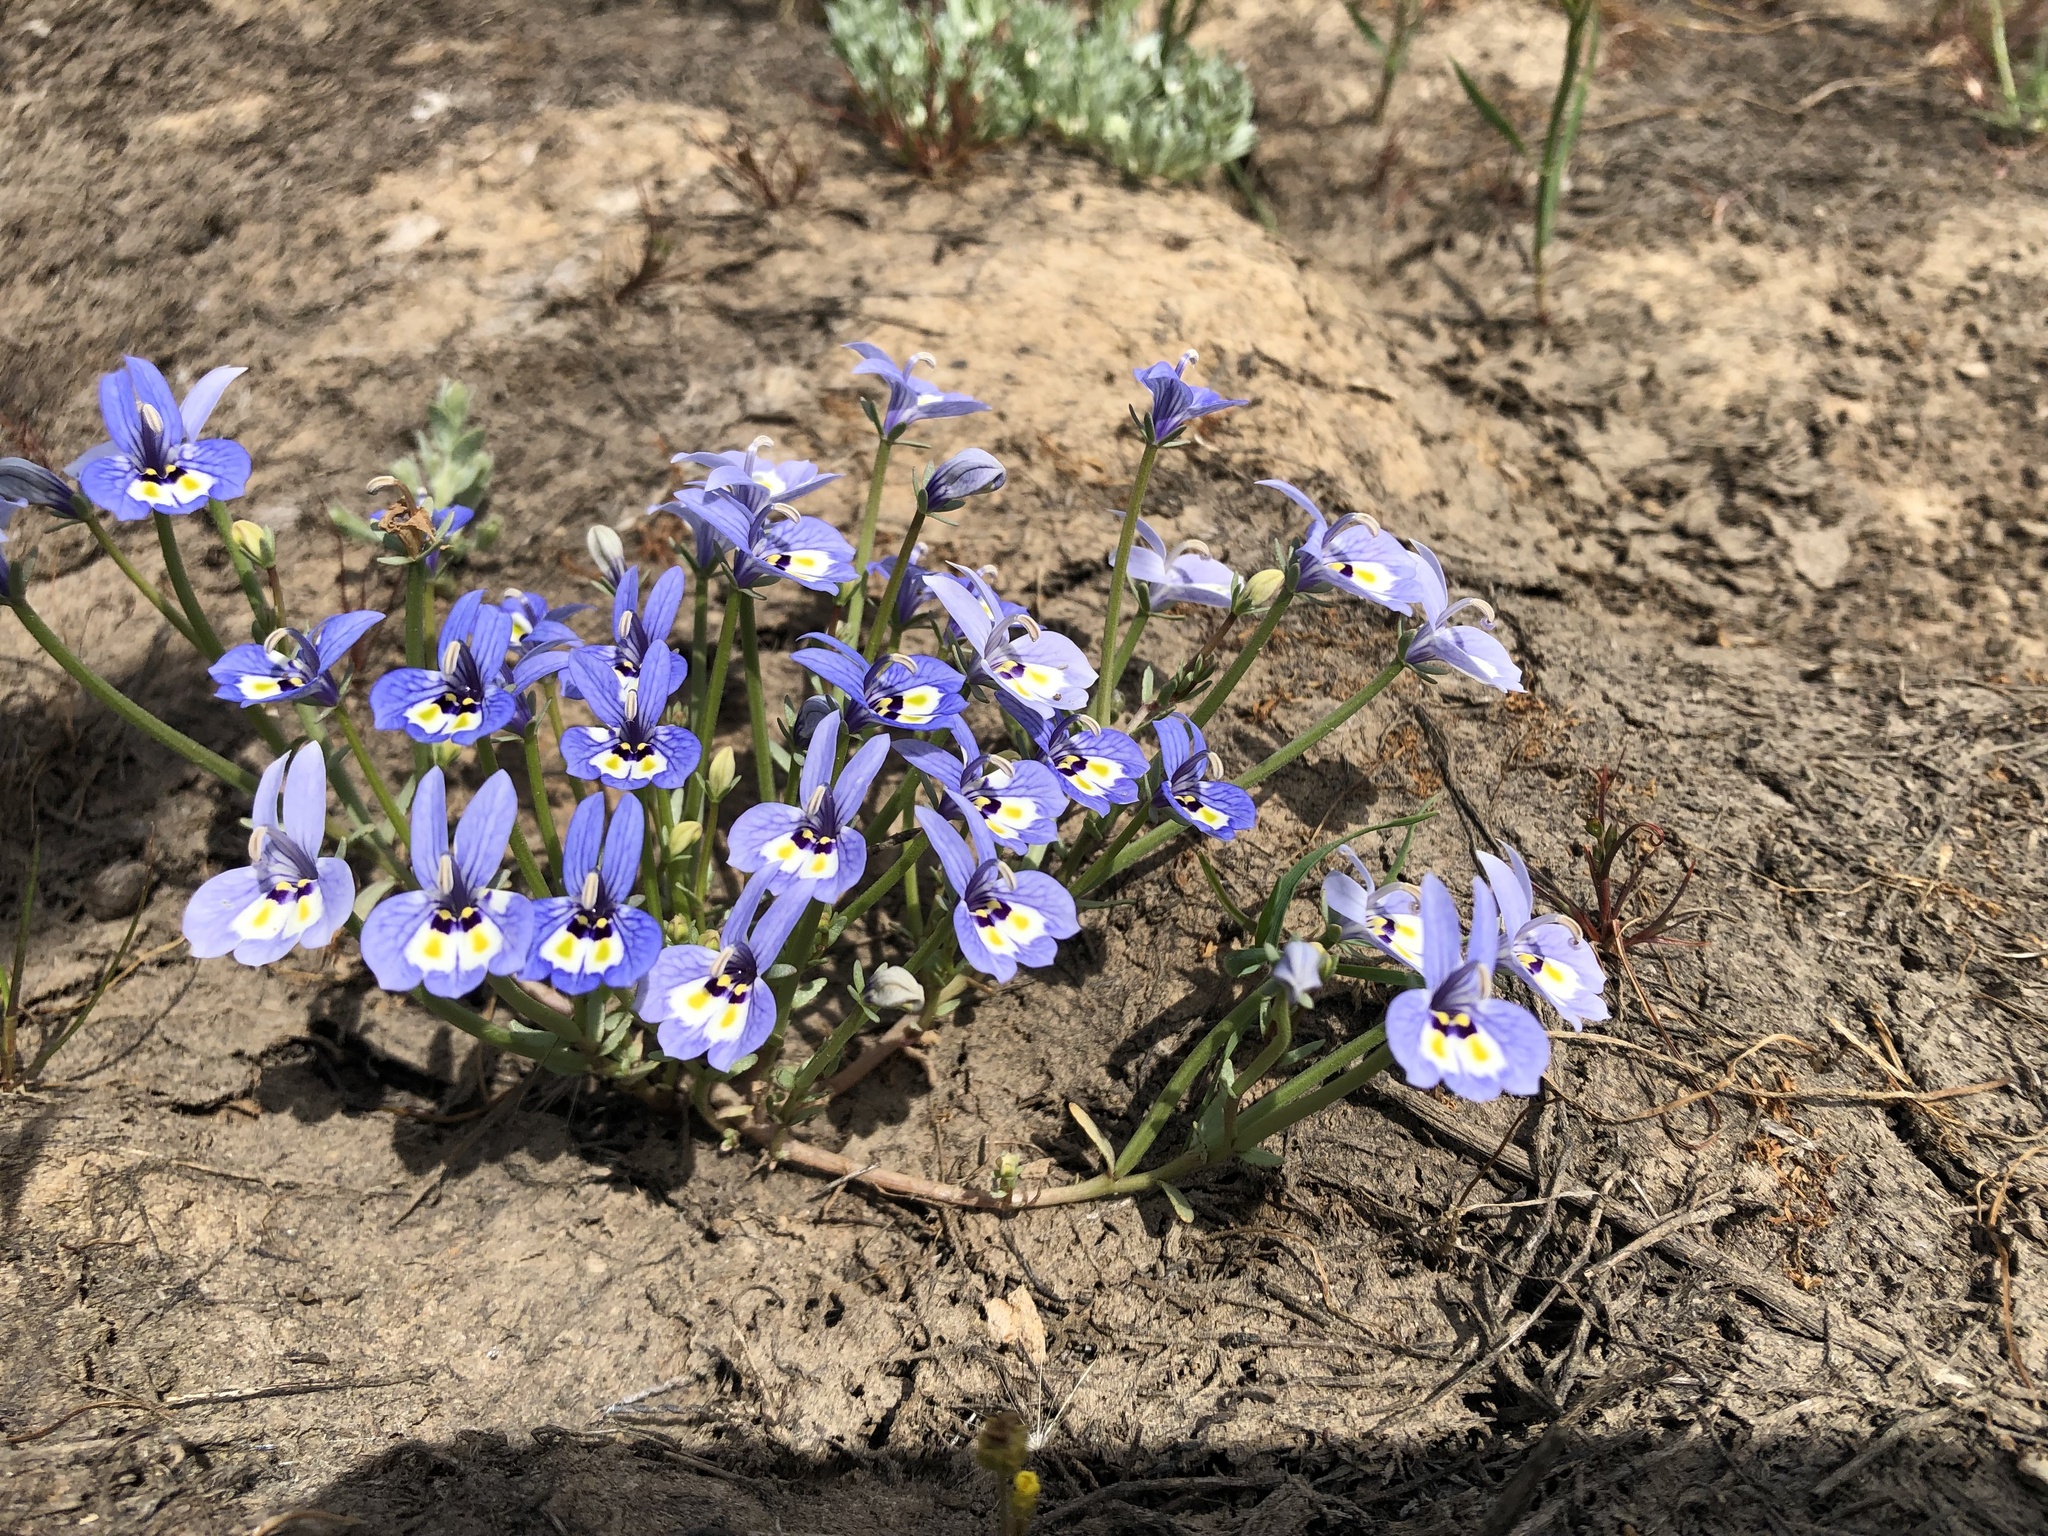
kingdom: Plantae
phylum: Tracheophyta
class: Magnoliopsida
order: Asterales
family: Campanulaceae
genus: Downingia
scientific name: Downingia insignis
